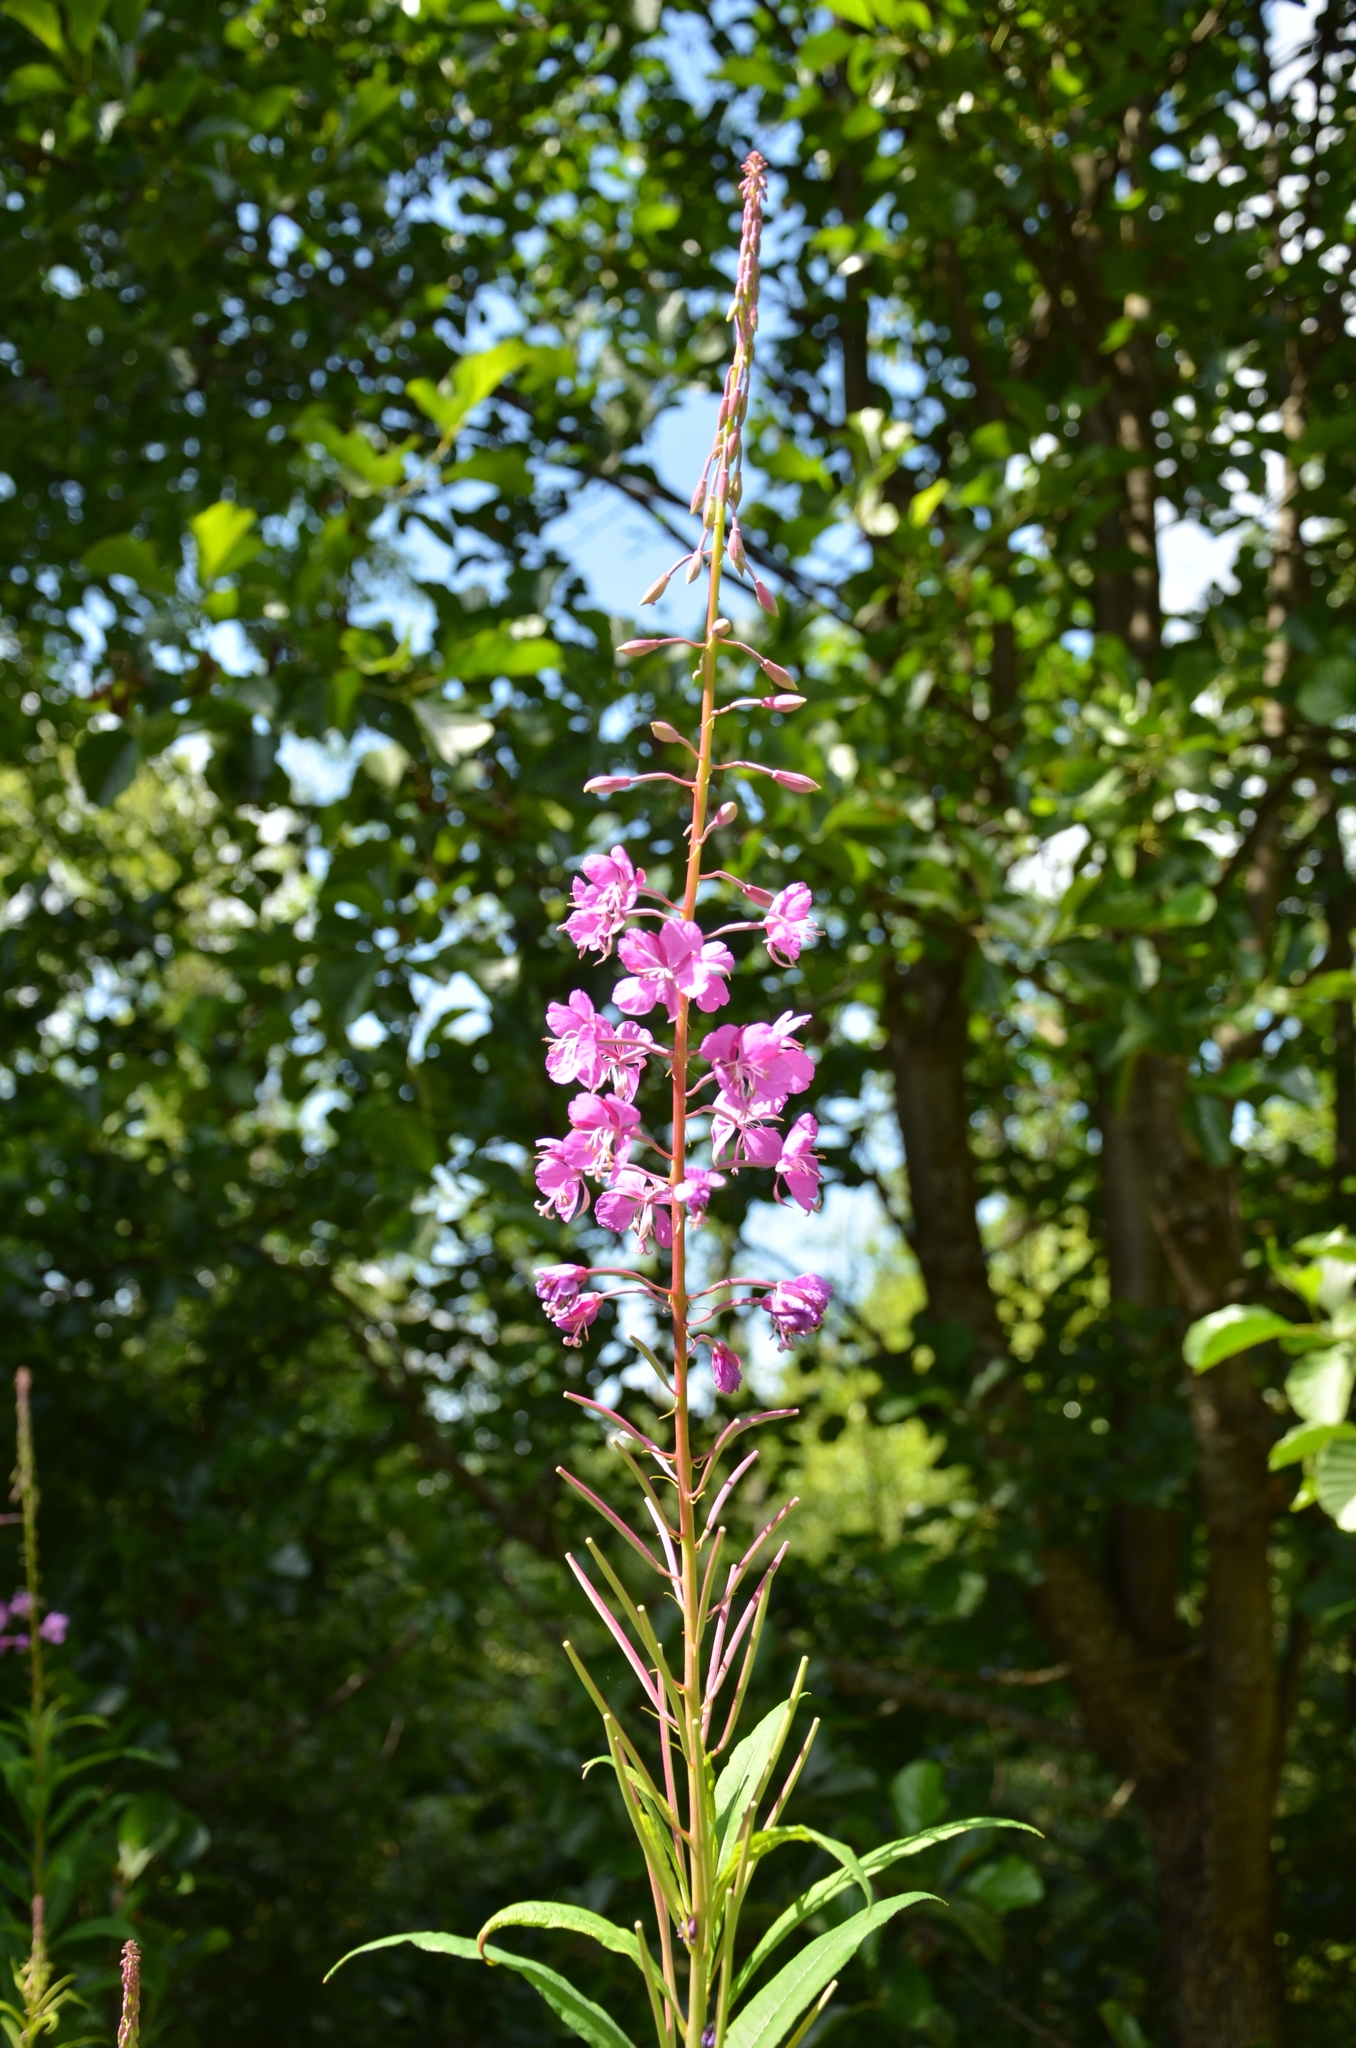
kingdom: Plantae
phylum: Tracheophyta
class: Magnoliopsida
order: Myrtales
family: Onagraceae
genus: Chamaenerion
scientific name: Chamaenerion angustifolium
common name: Fireweed
